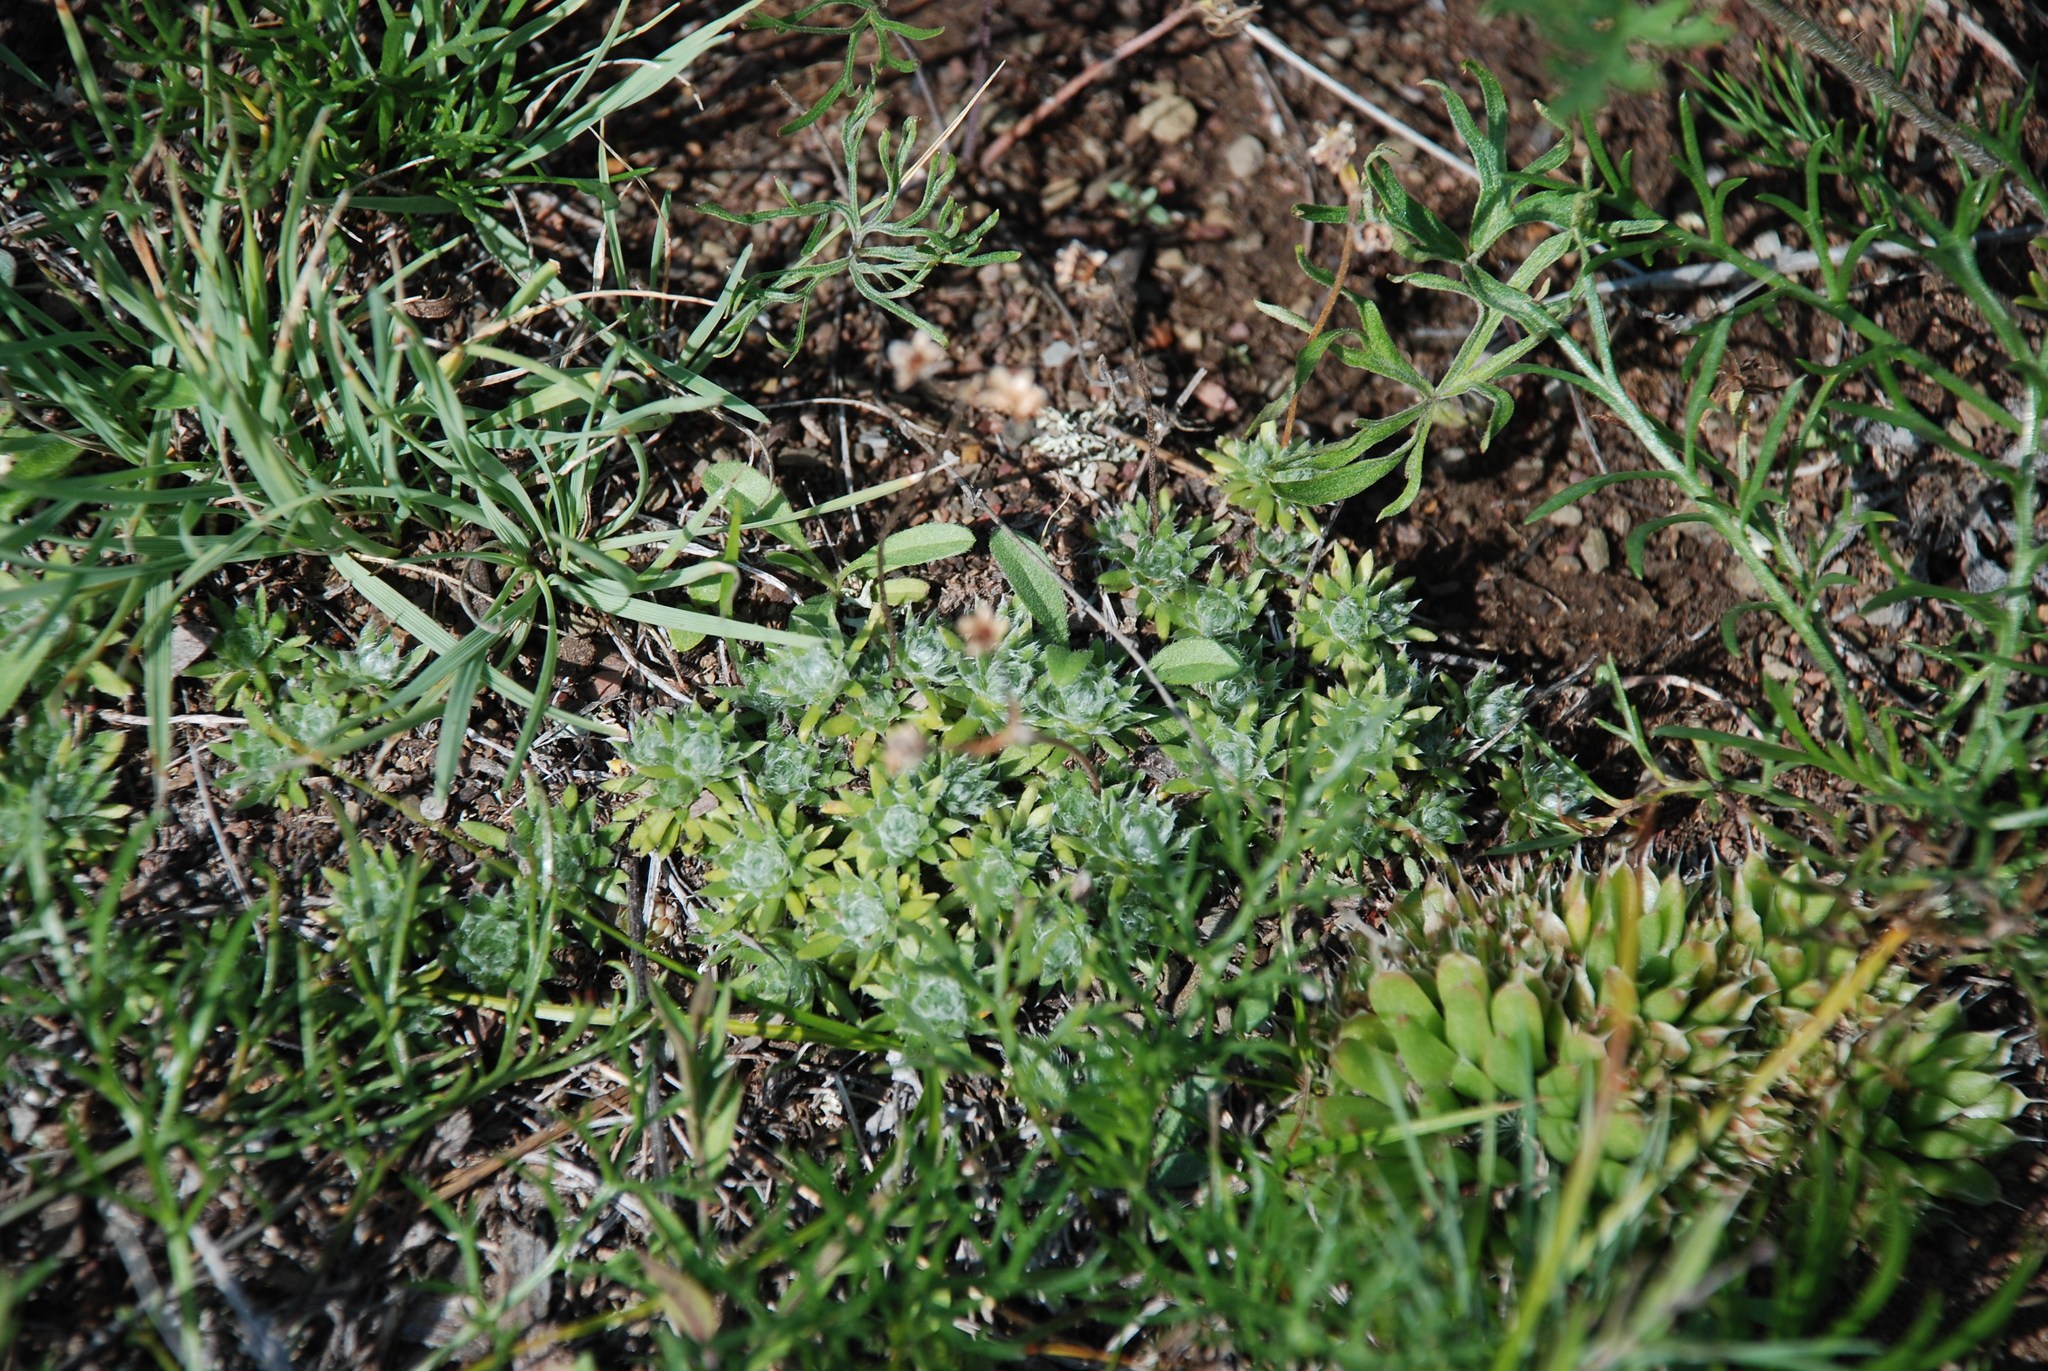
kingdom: Plantae
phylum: Tracheophyta
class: Magnoliopsida
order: Ericales
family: Primulaceae
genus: Androsace
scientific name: Androsace incana
